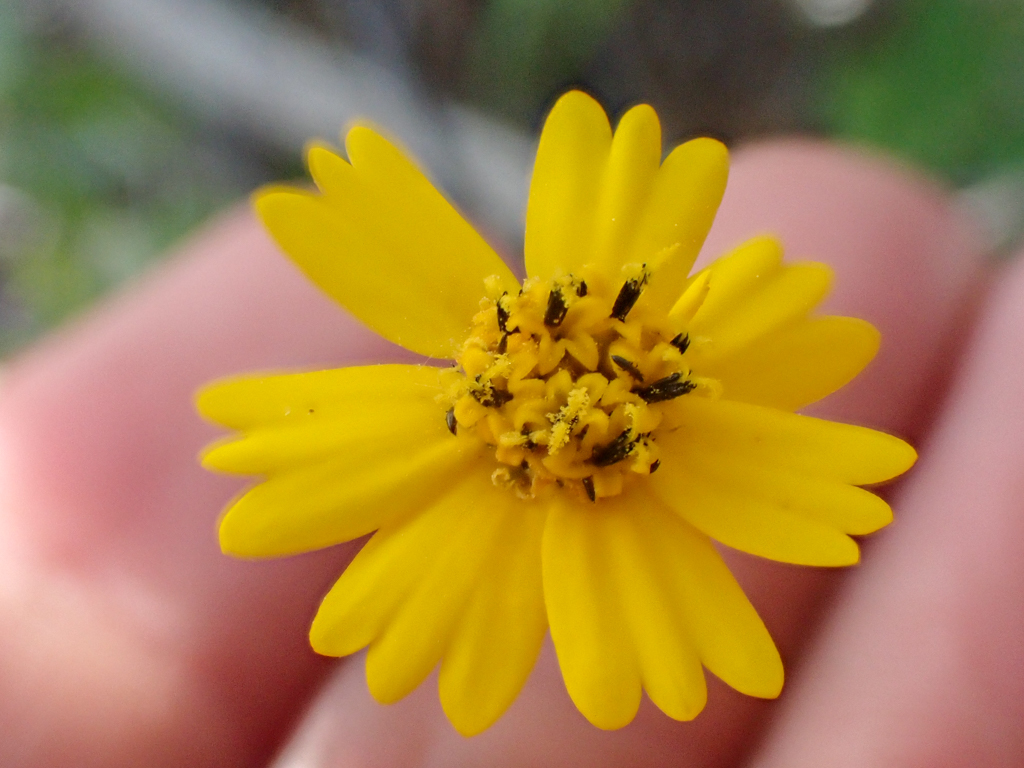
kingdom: Plantae
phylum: Tracheophyta
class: Magnoliopsida
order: Asterales
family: Asteraceae
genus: Layia
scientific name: Layia gaillardioides
